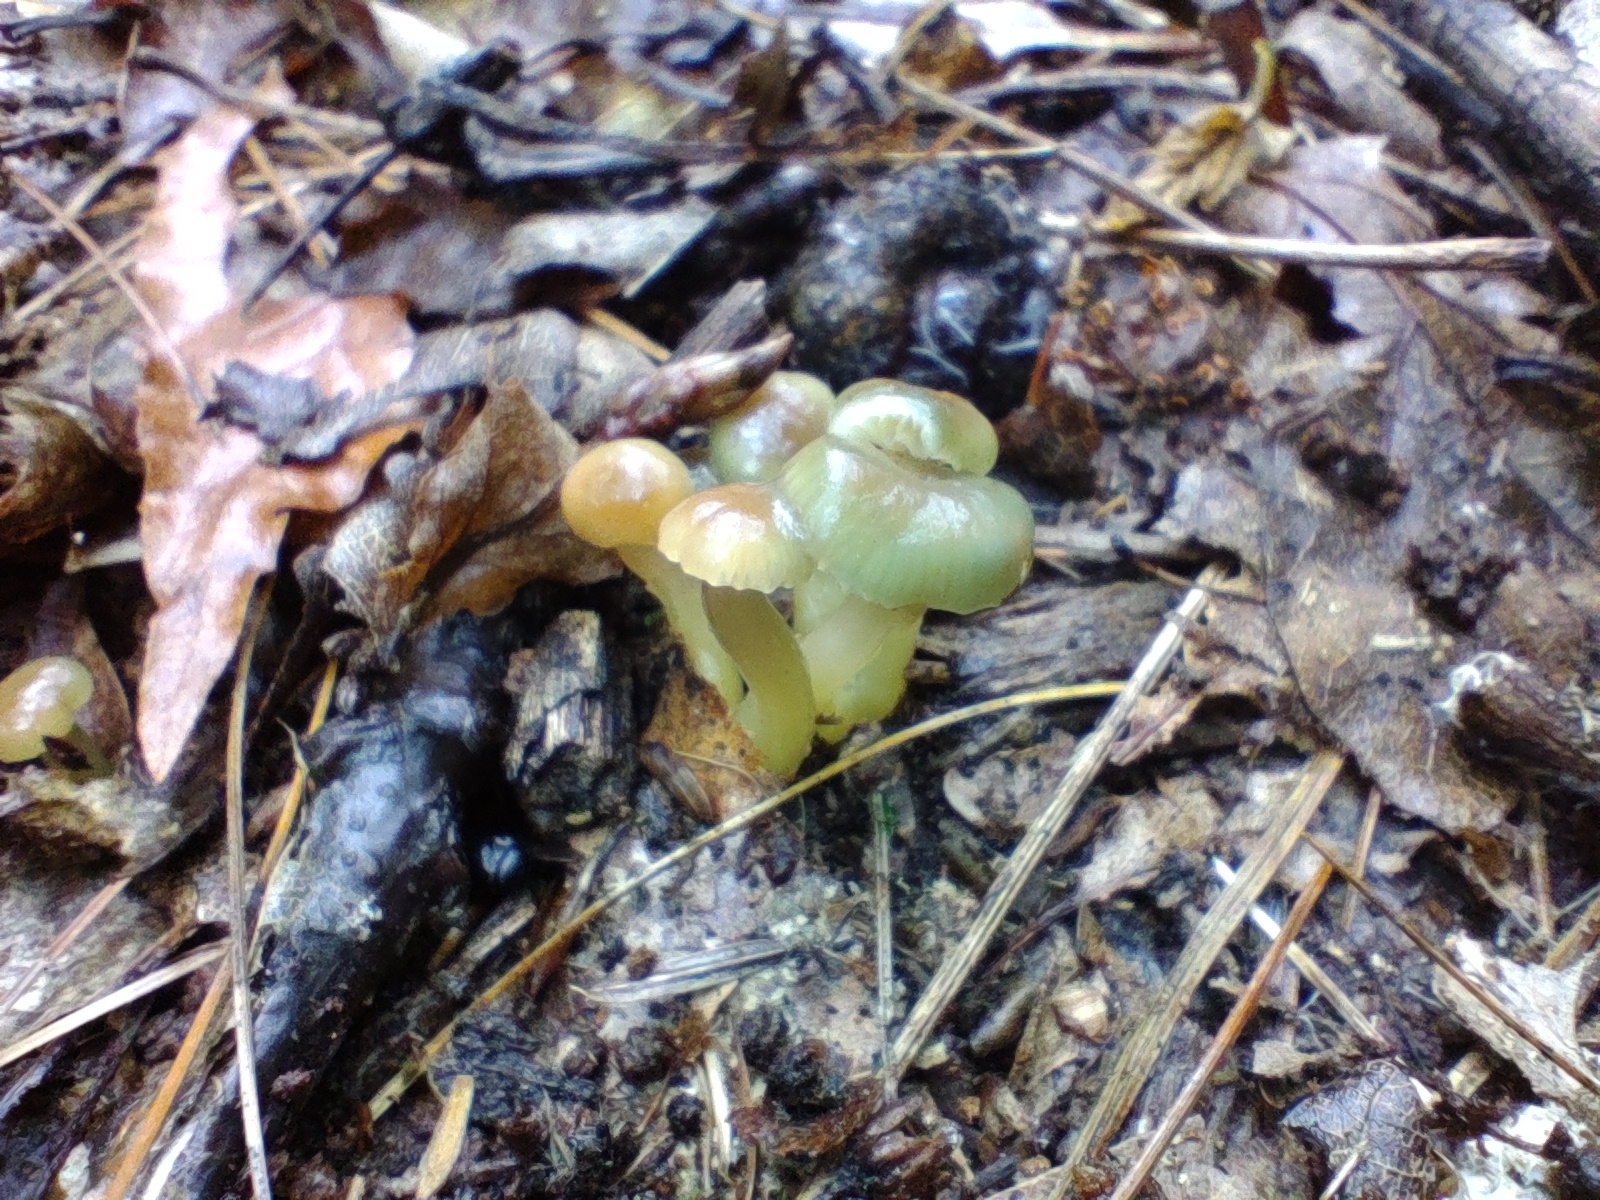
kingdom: Fungi
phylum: Basidiomycota
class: Agaricomycetes
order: Agaricales
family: Hygrophoraceae
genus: Gliophorus
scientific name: Gliophorus psittacinus
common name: Parrot wax-cap
